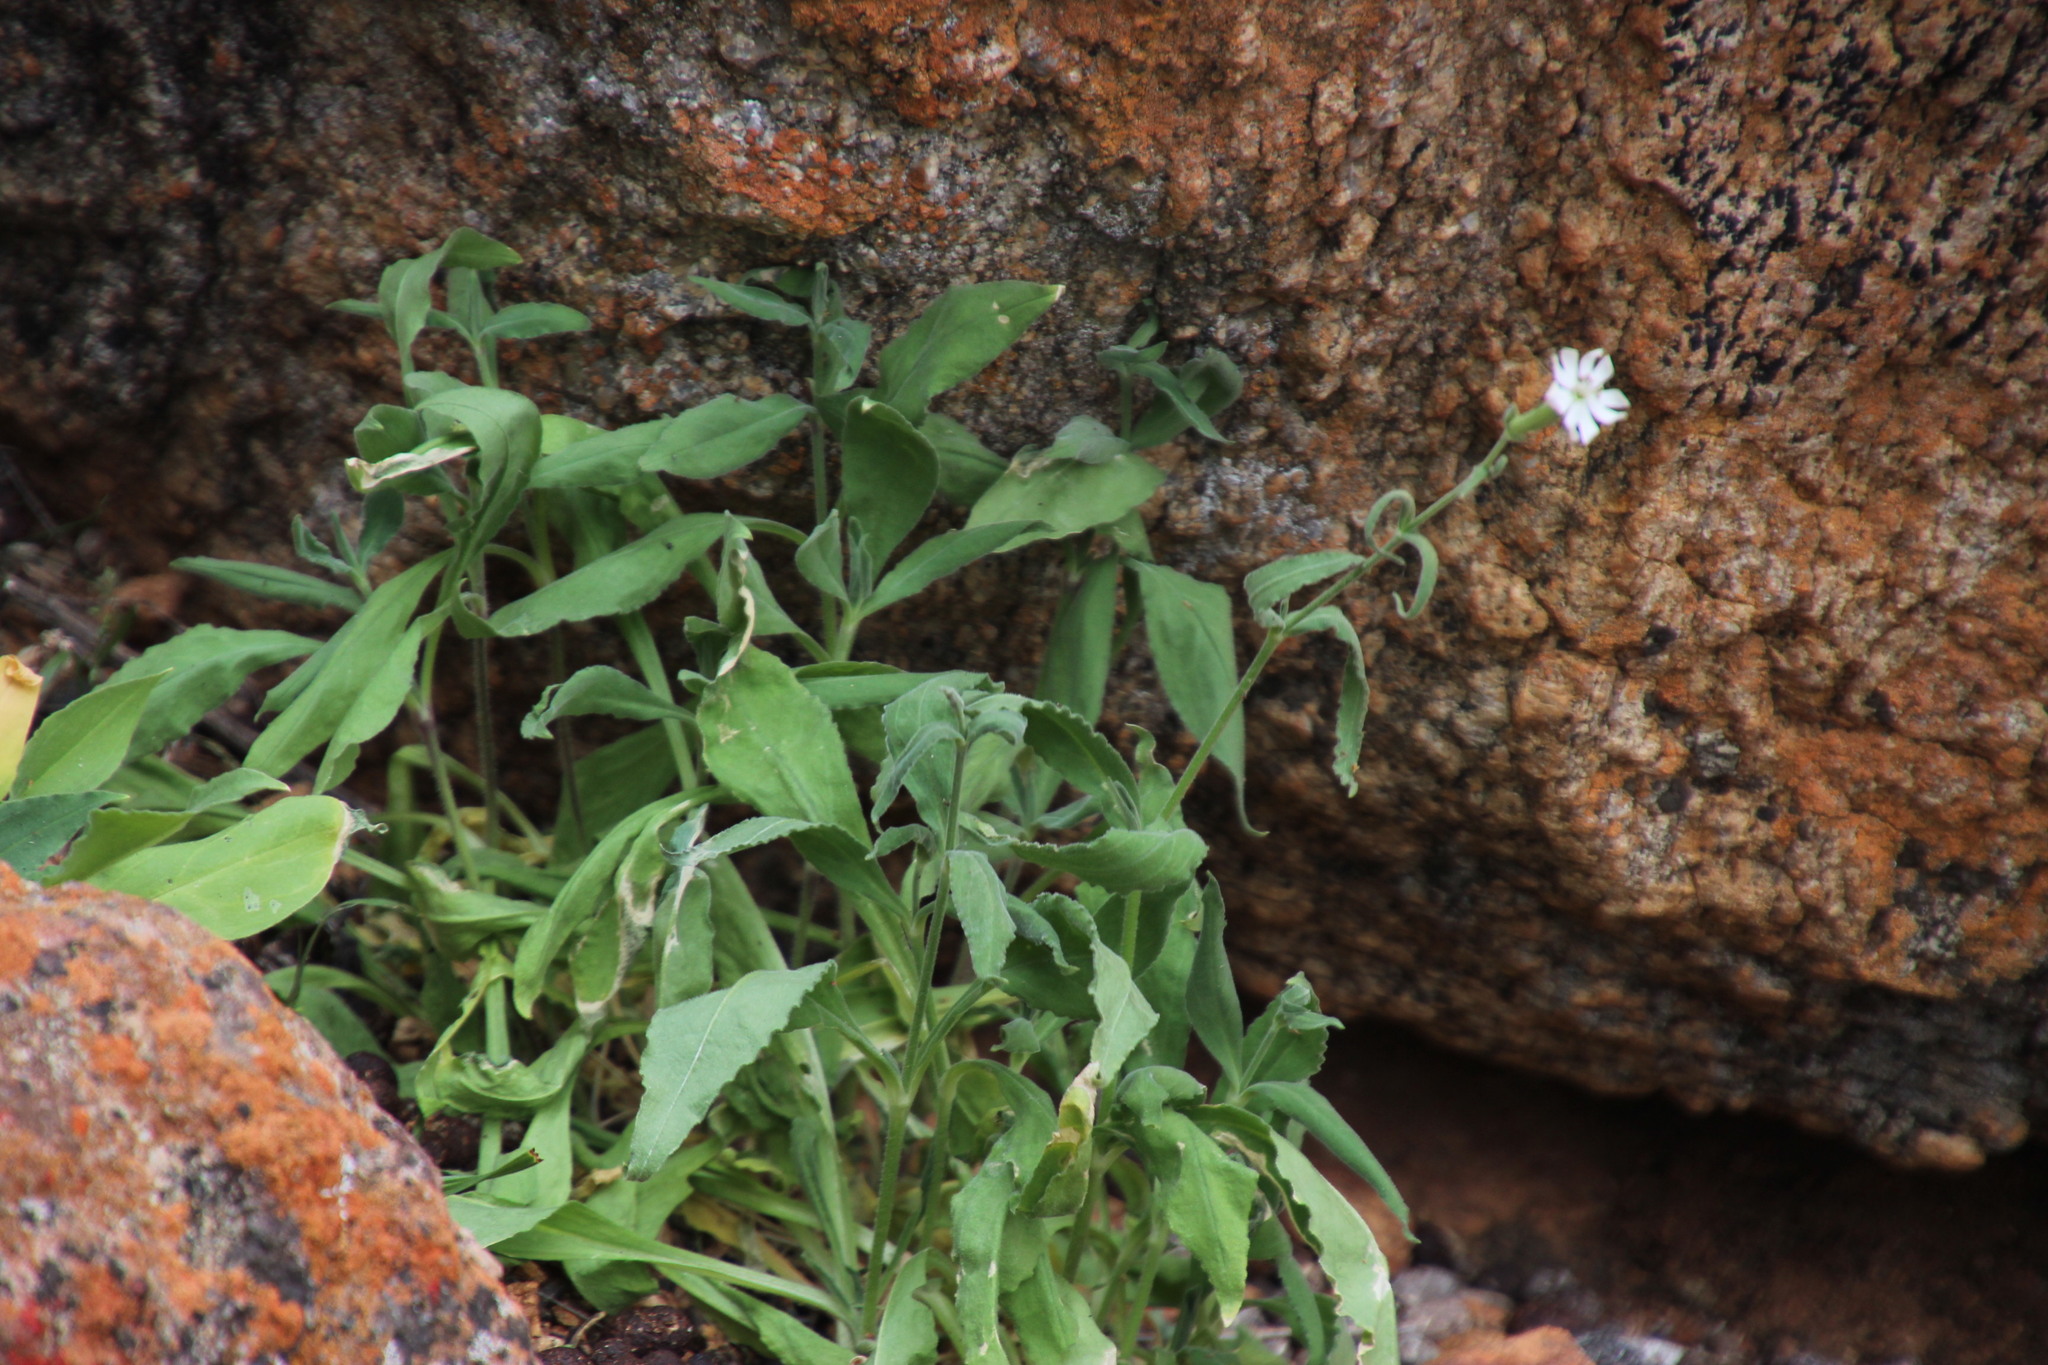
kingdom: Plantae
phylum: Tracheophyta
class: Magnoliopsida
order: Caryophyllales
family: Caryophyllaceae
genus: Silene
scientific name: Silene undulata
